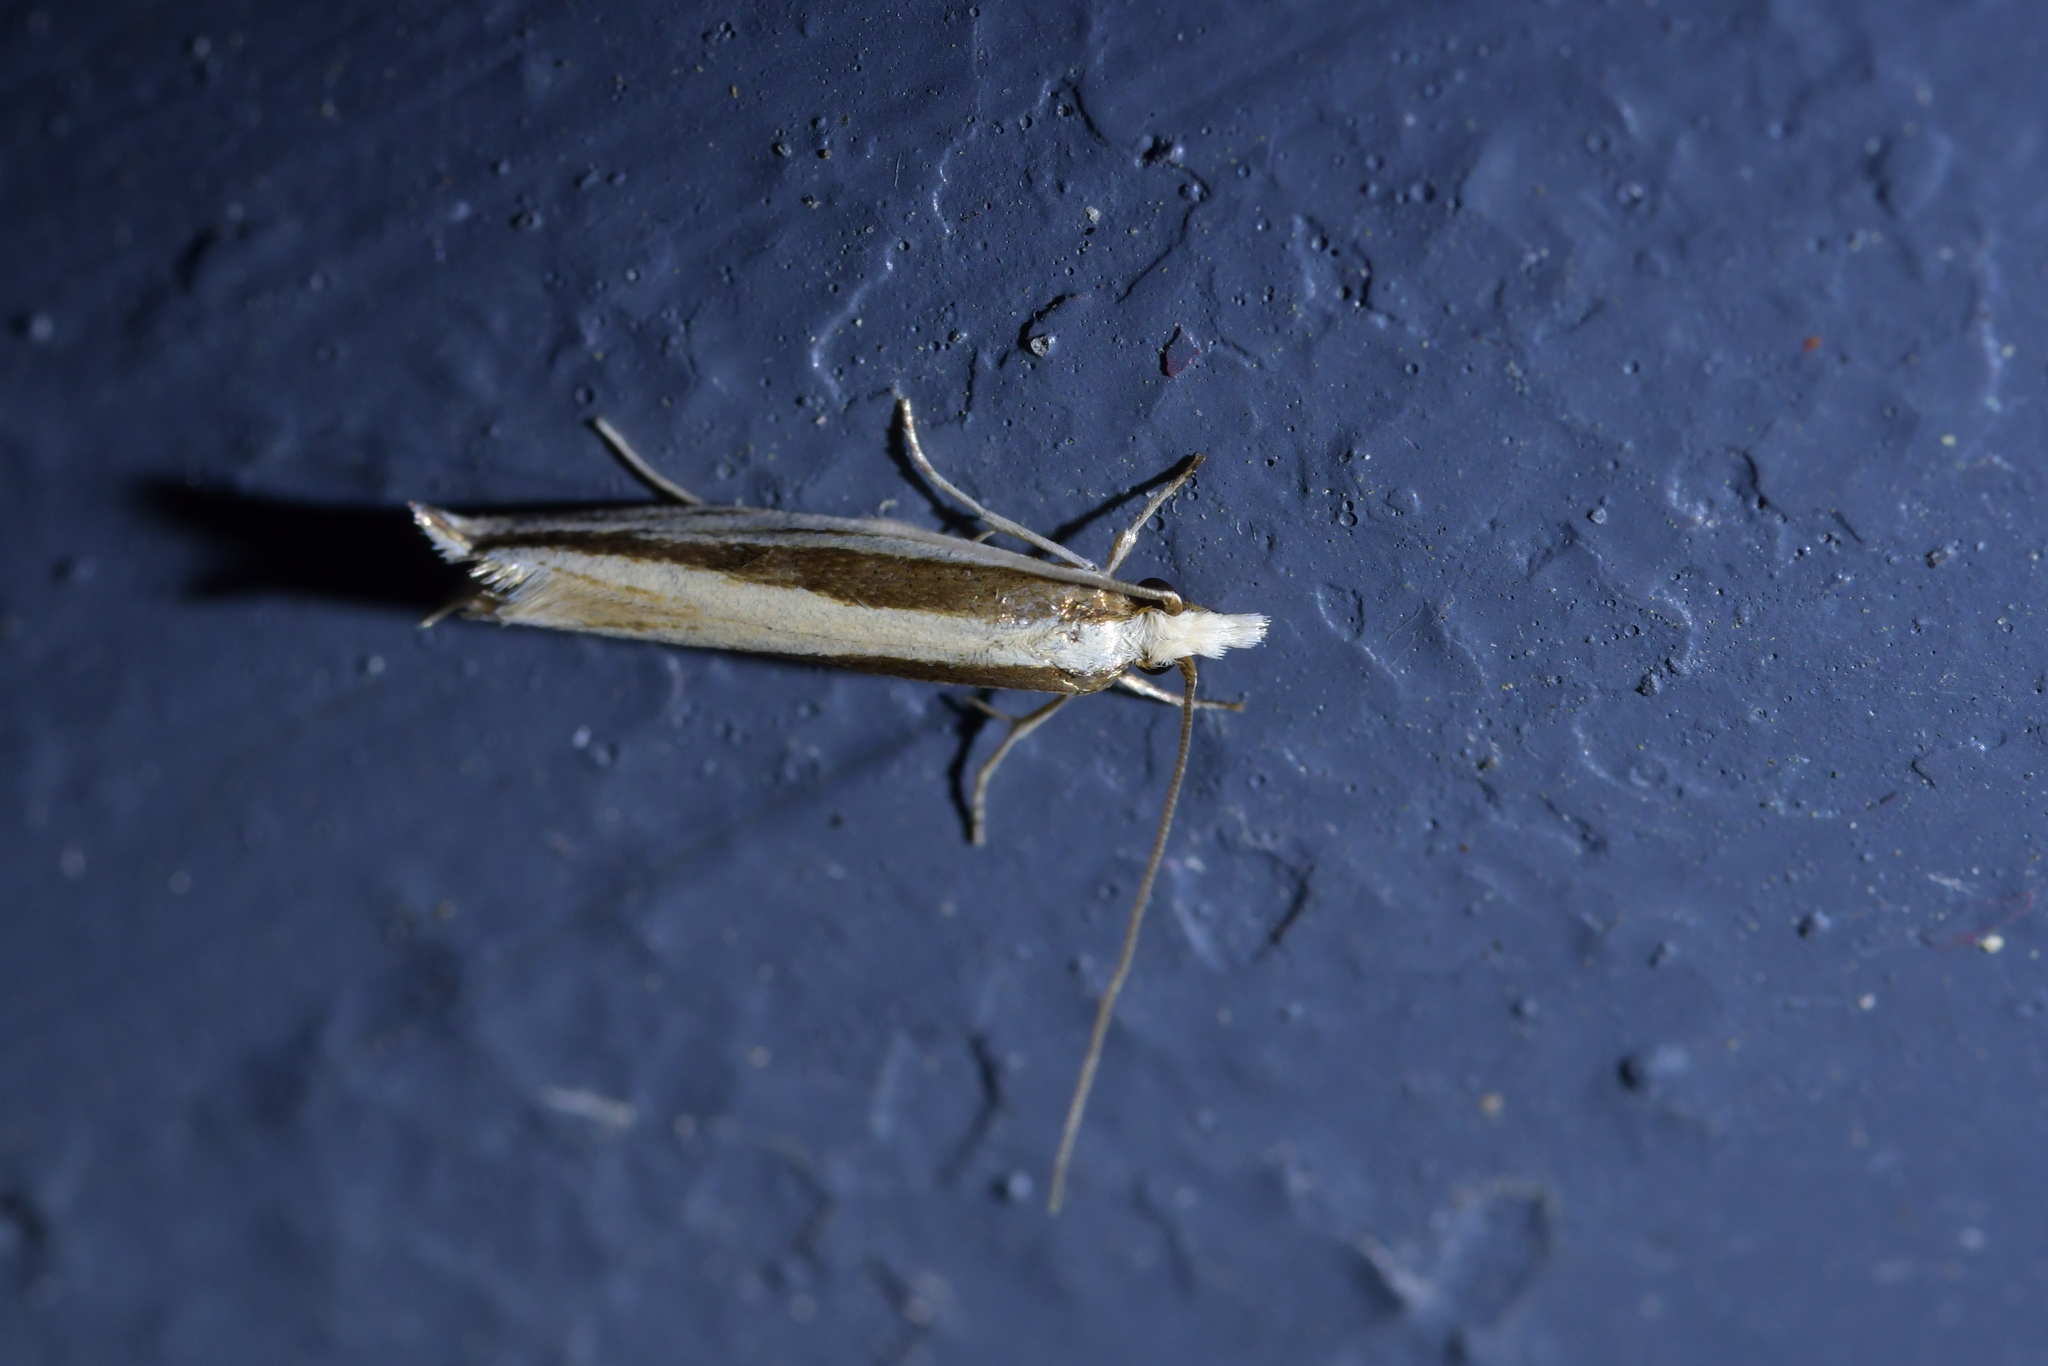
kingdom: Animalia
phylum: Arthropoda
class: Insecta
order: Lepidoptera
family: Tineidae
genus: Erechthias
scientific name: Erechthias stilbella
